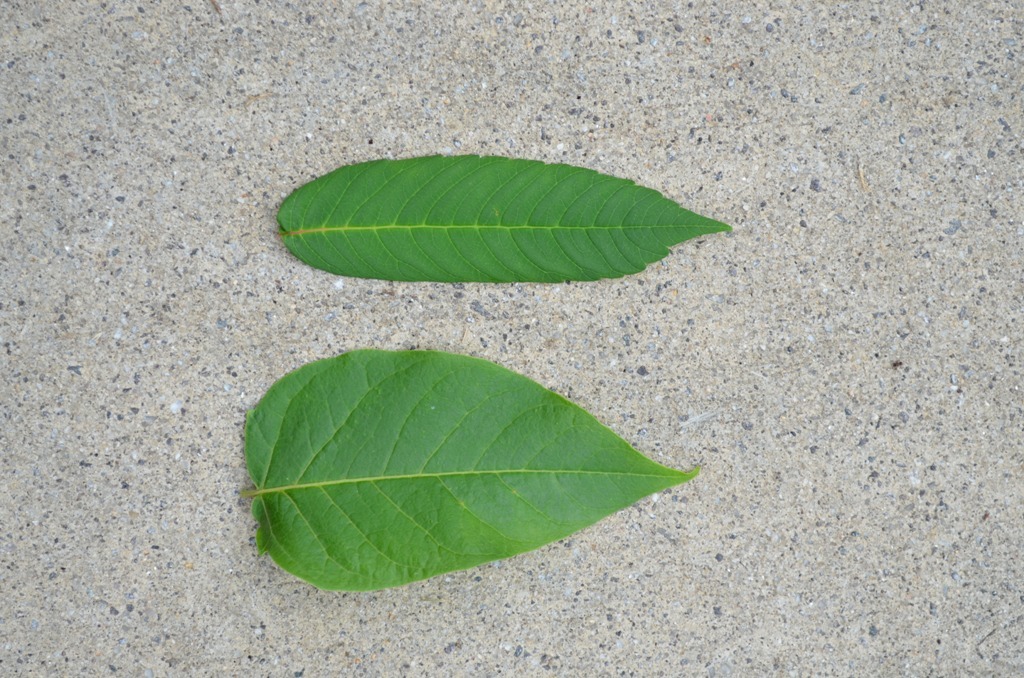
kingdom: Plantae
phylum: Tracheophyta
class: Magnoliopsida
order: Sapindales
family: Anacardiaceae
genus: Rhus
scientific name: Rhus glabra
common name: Scarlet sumac
